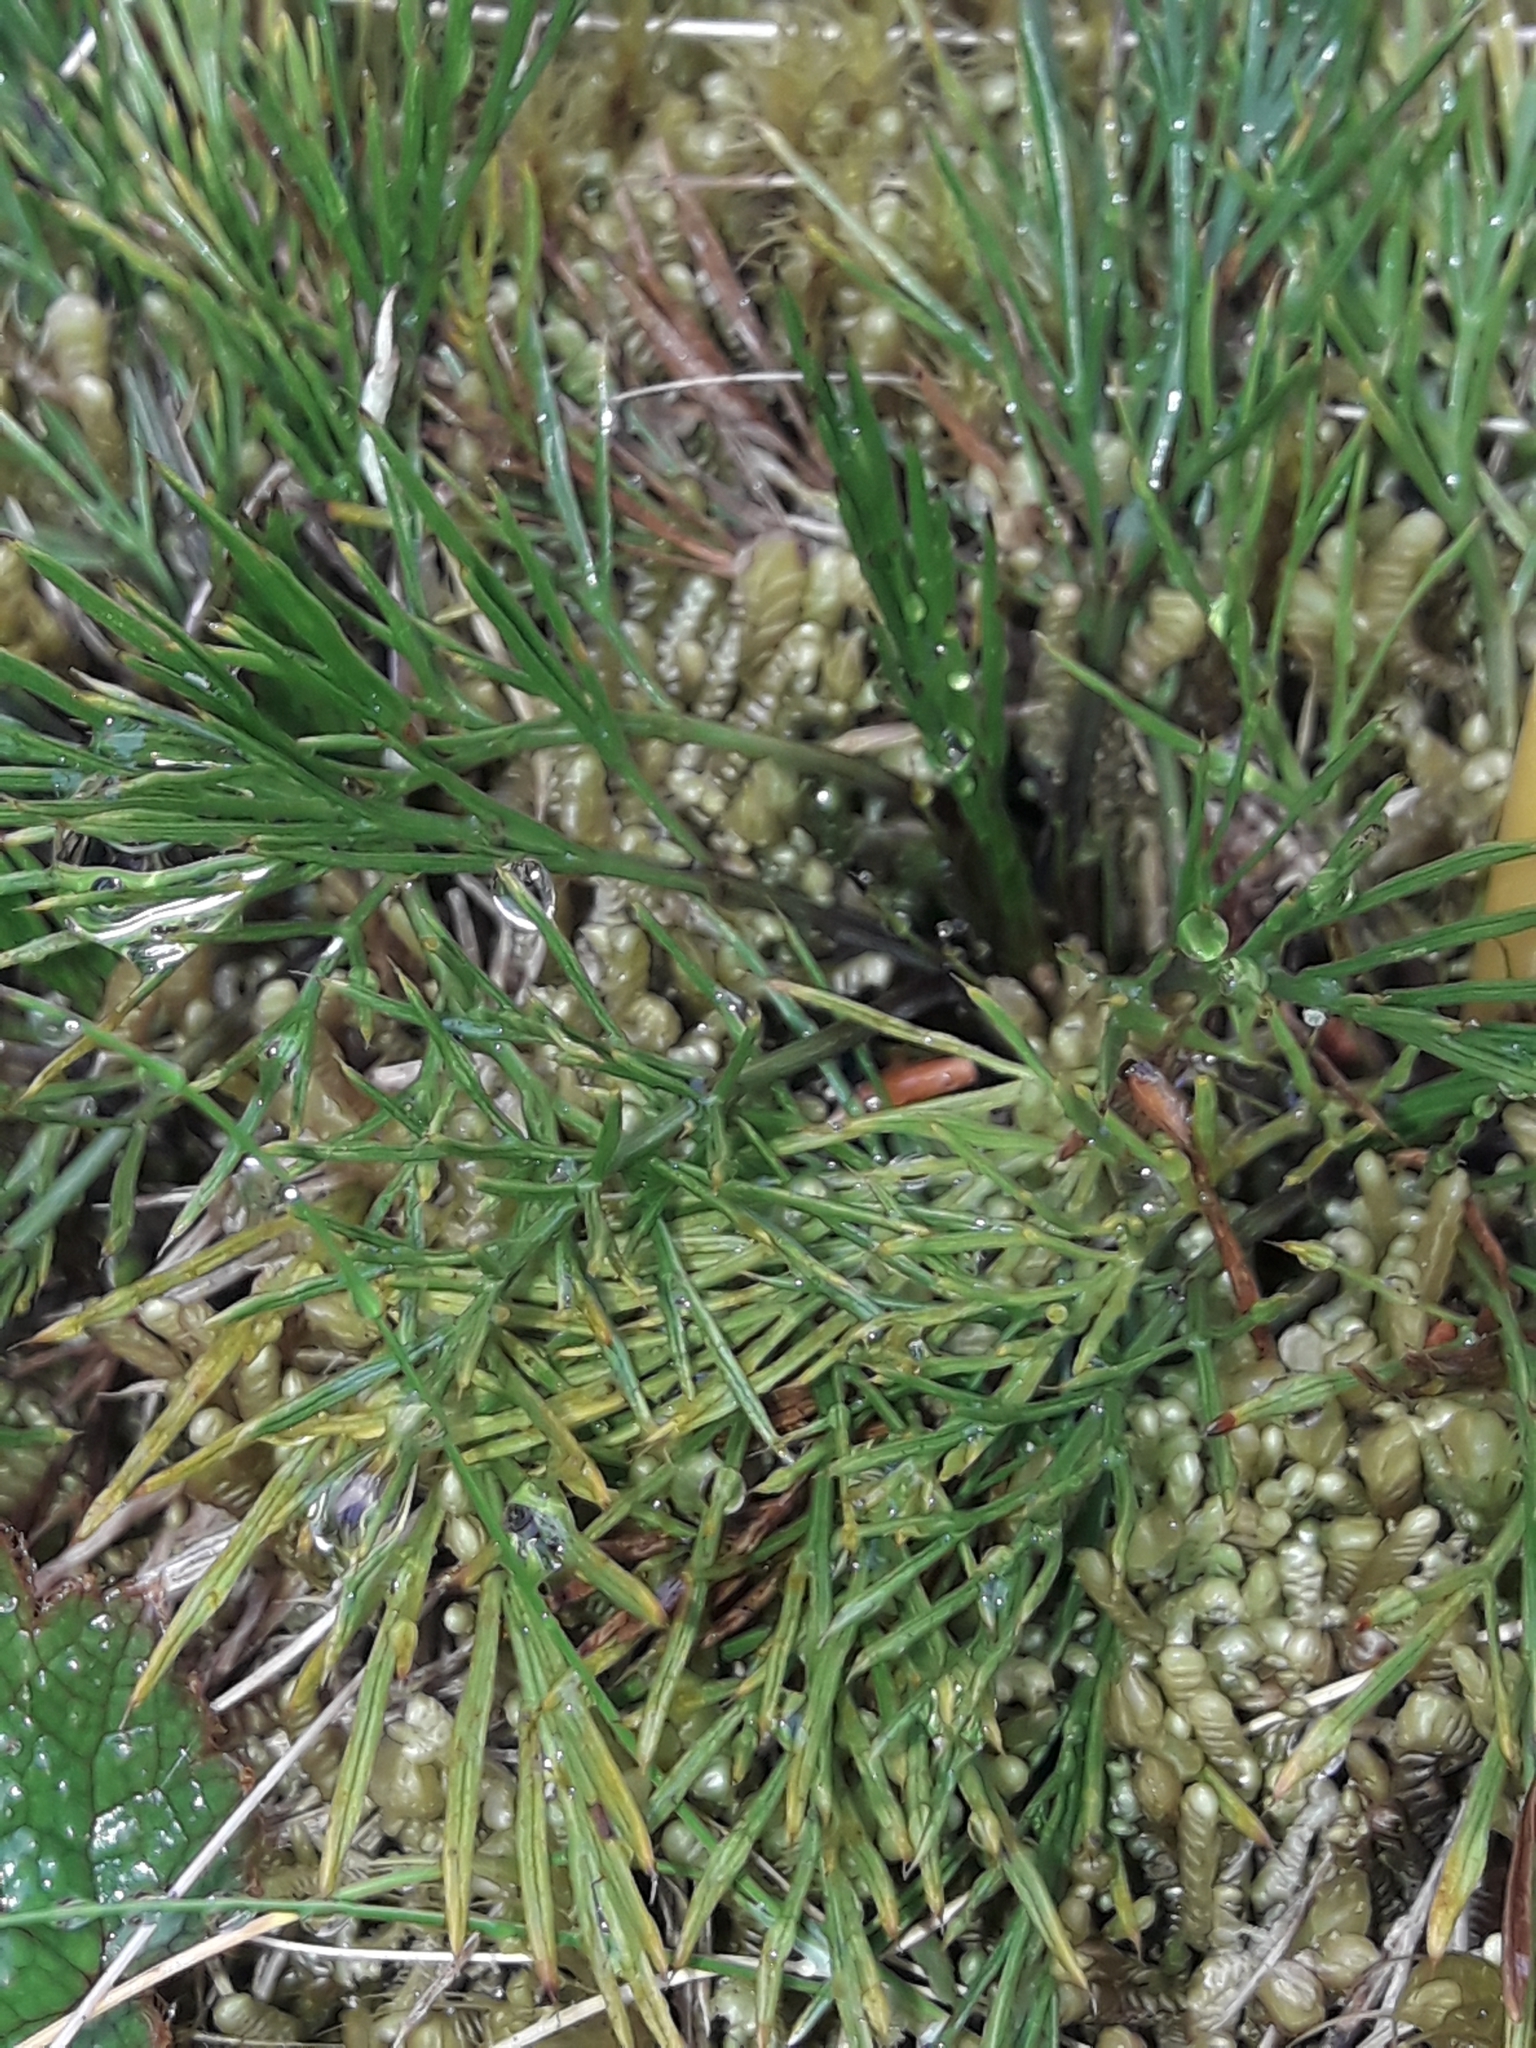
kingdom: Plantae
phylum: Tracheophyta
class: Magnoliopsida
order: Apiales
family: Apiaceae
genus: Aciphylla
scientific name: Aciphylla polita
